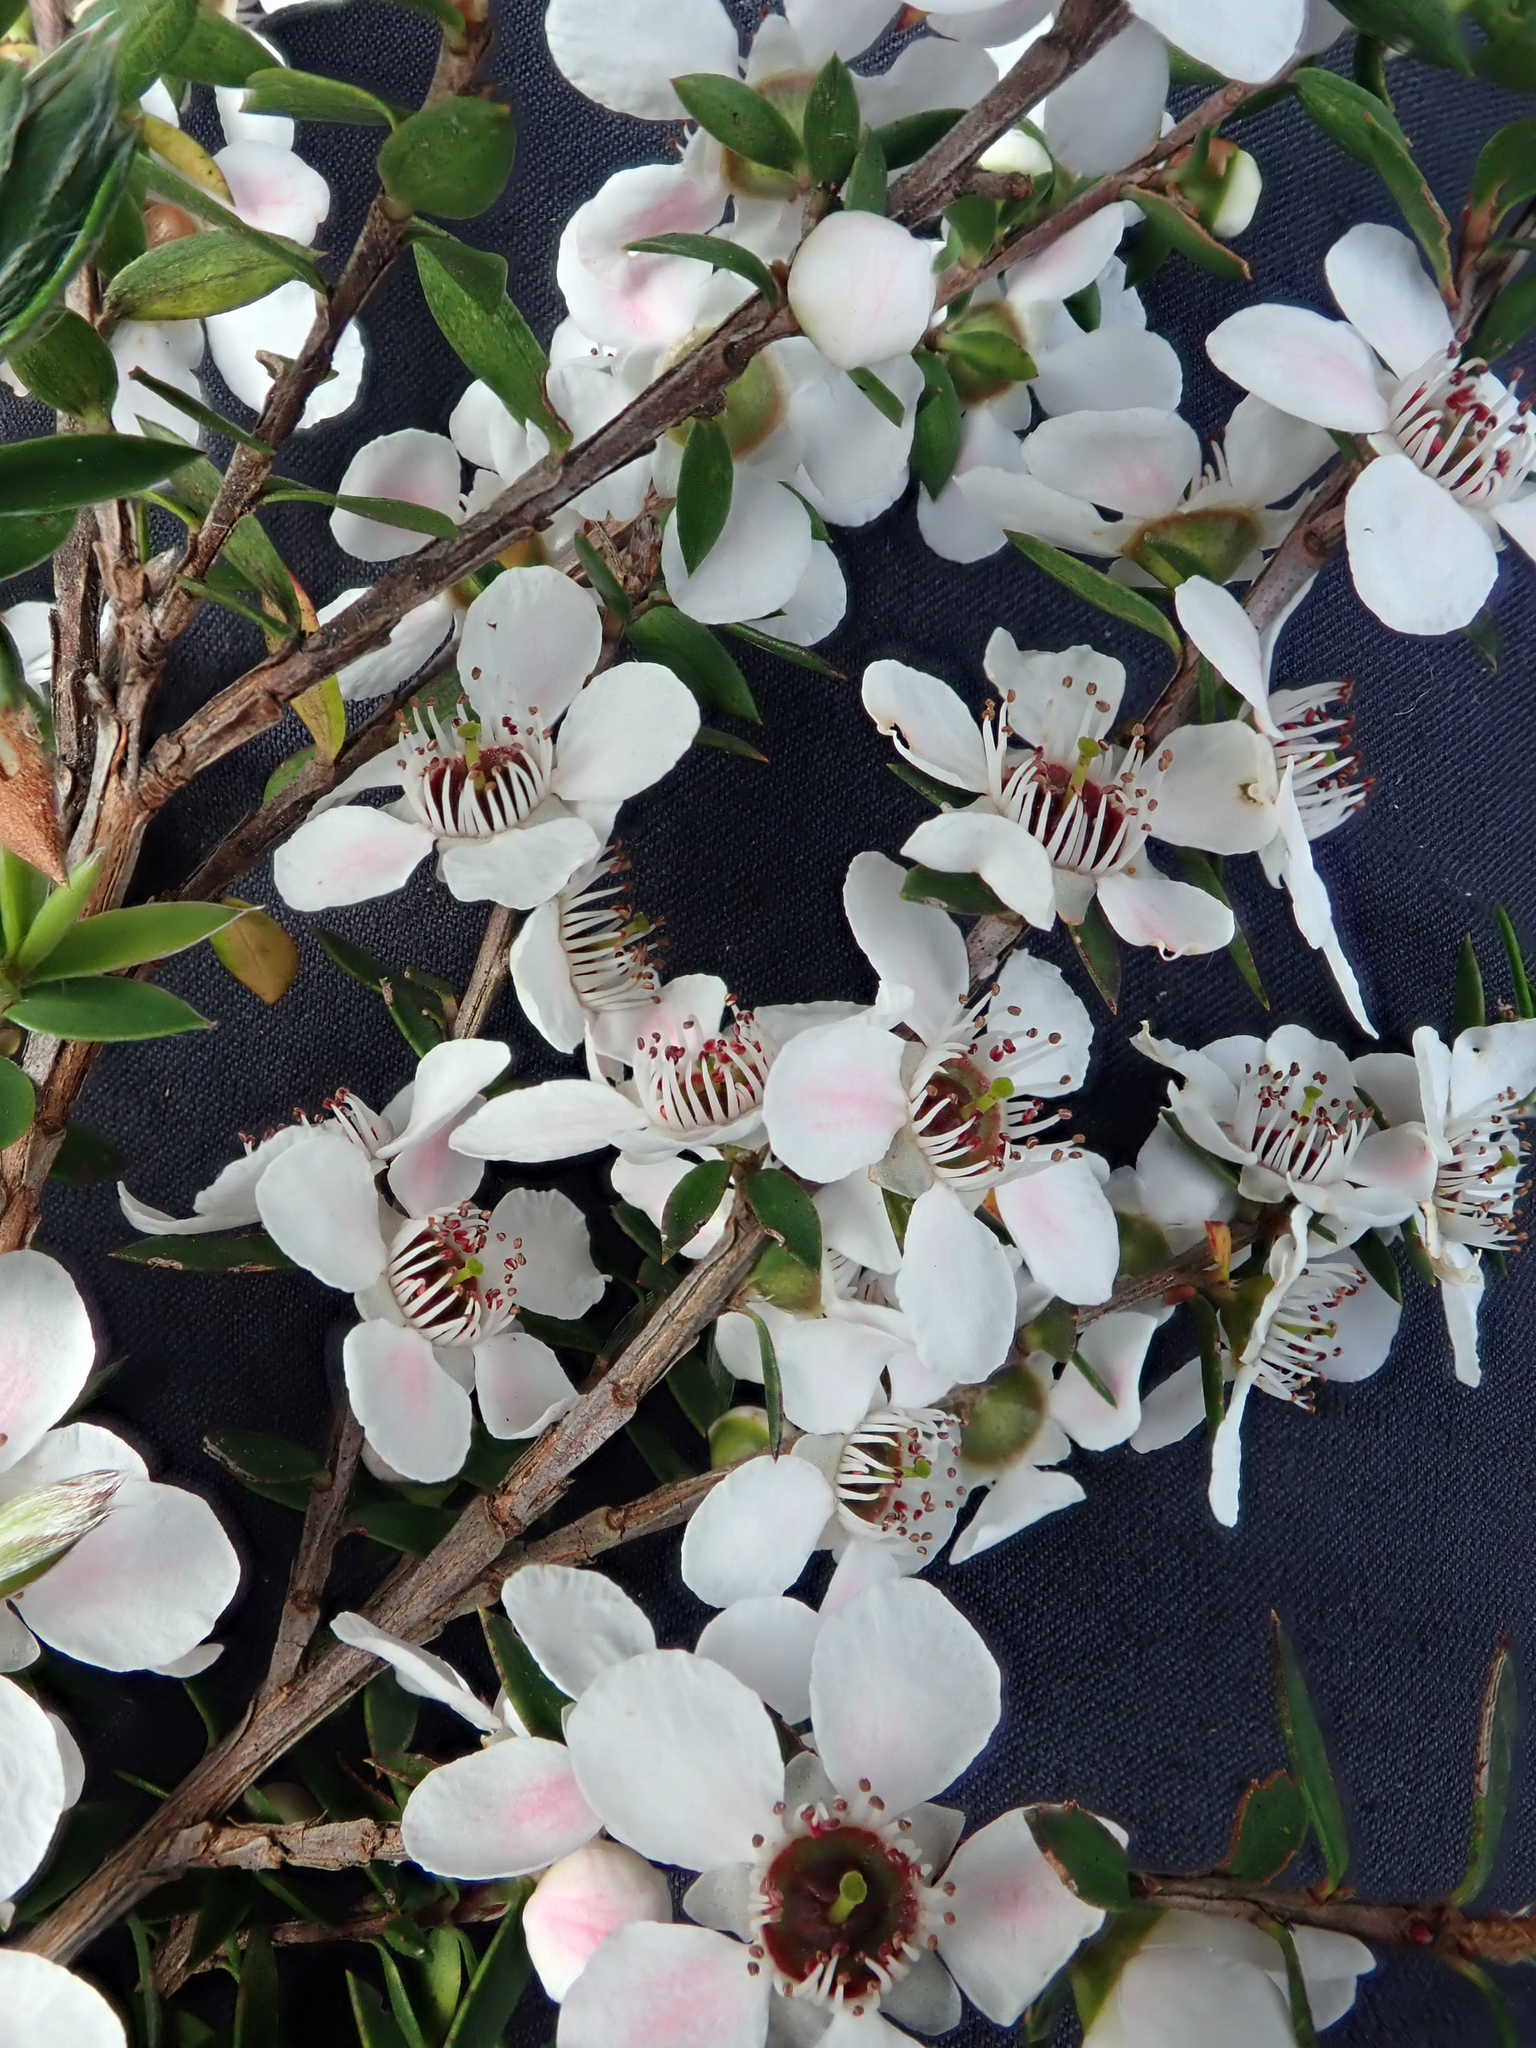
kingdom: Plantae
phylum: Tracheophyta
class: Magnoliopsida
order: Myrtales
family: Myrtaceae
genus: Leptospermum
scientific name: Leptospermum scoparium
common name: Broom tea-tree
